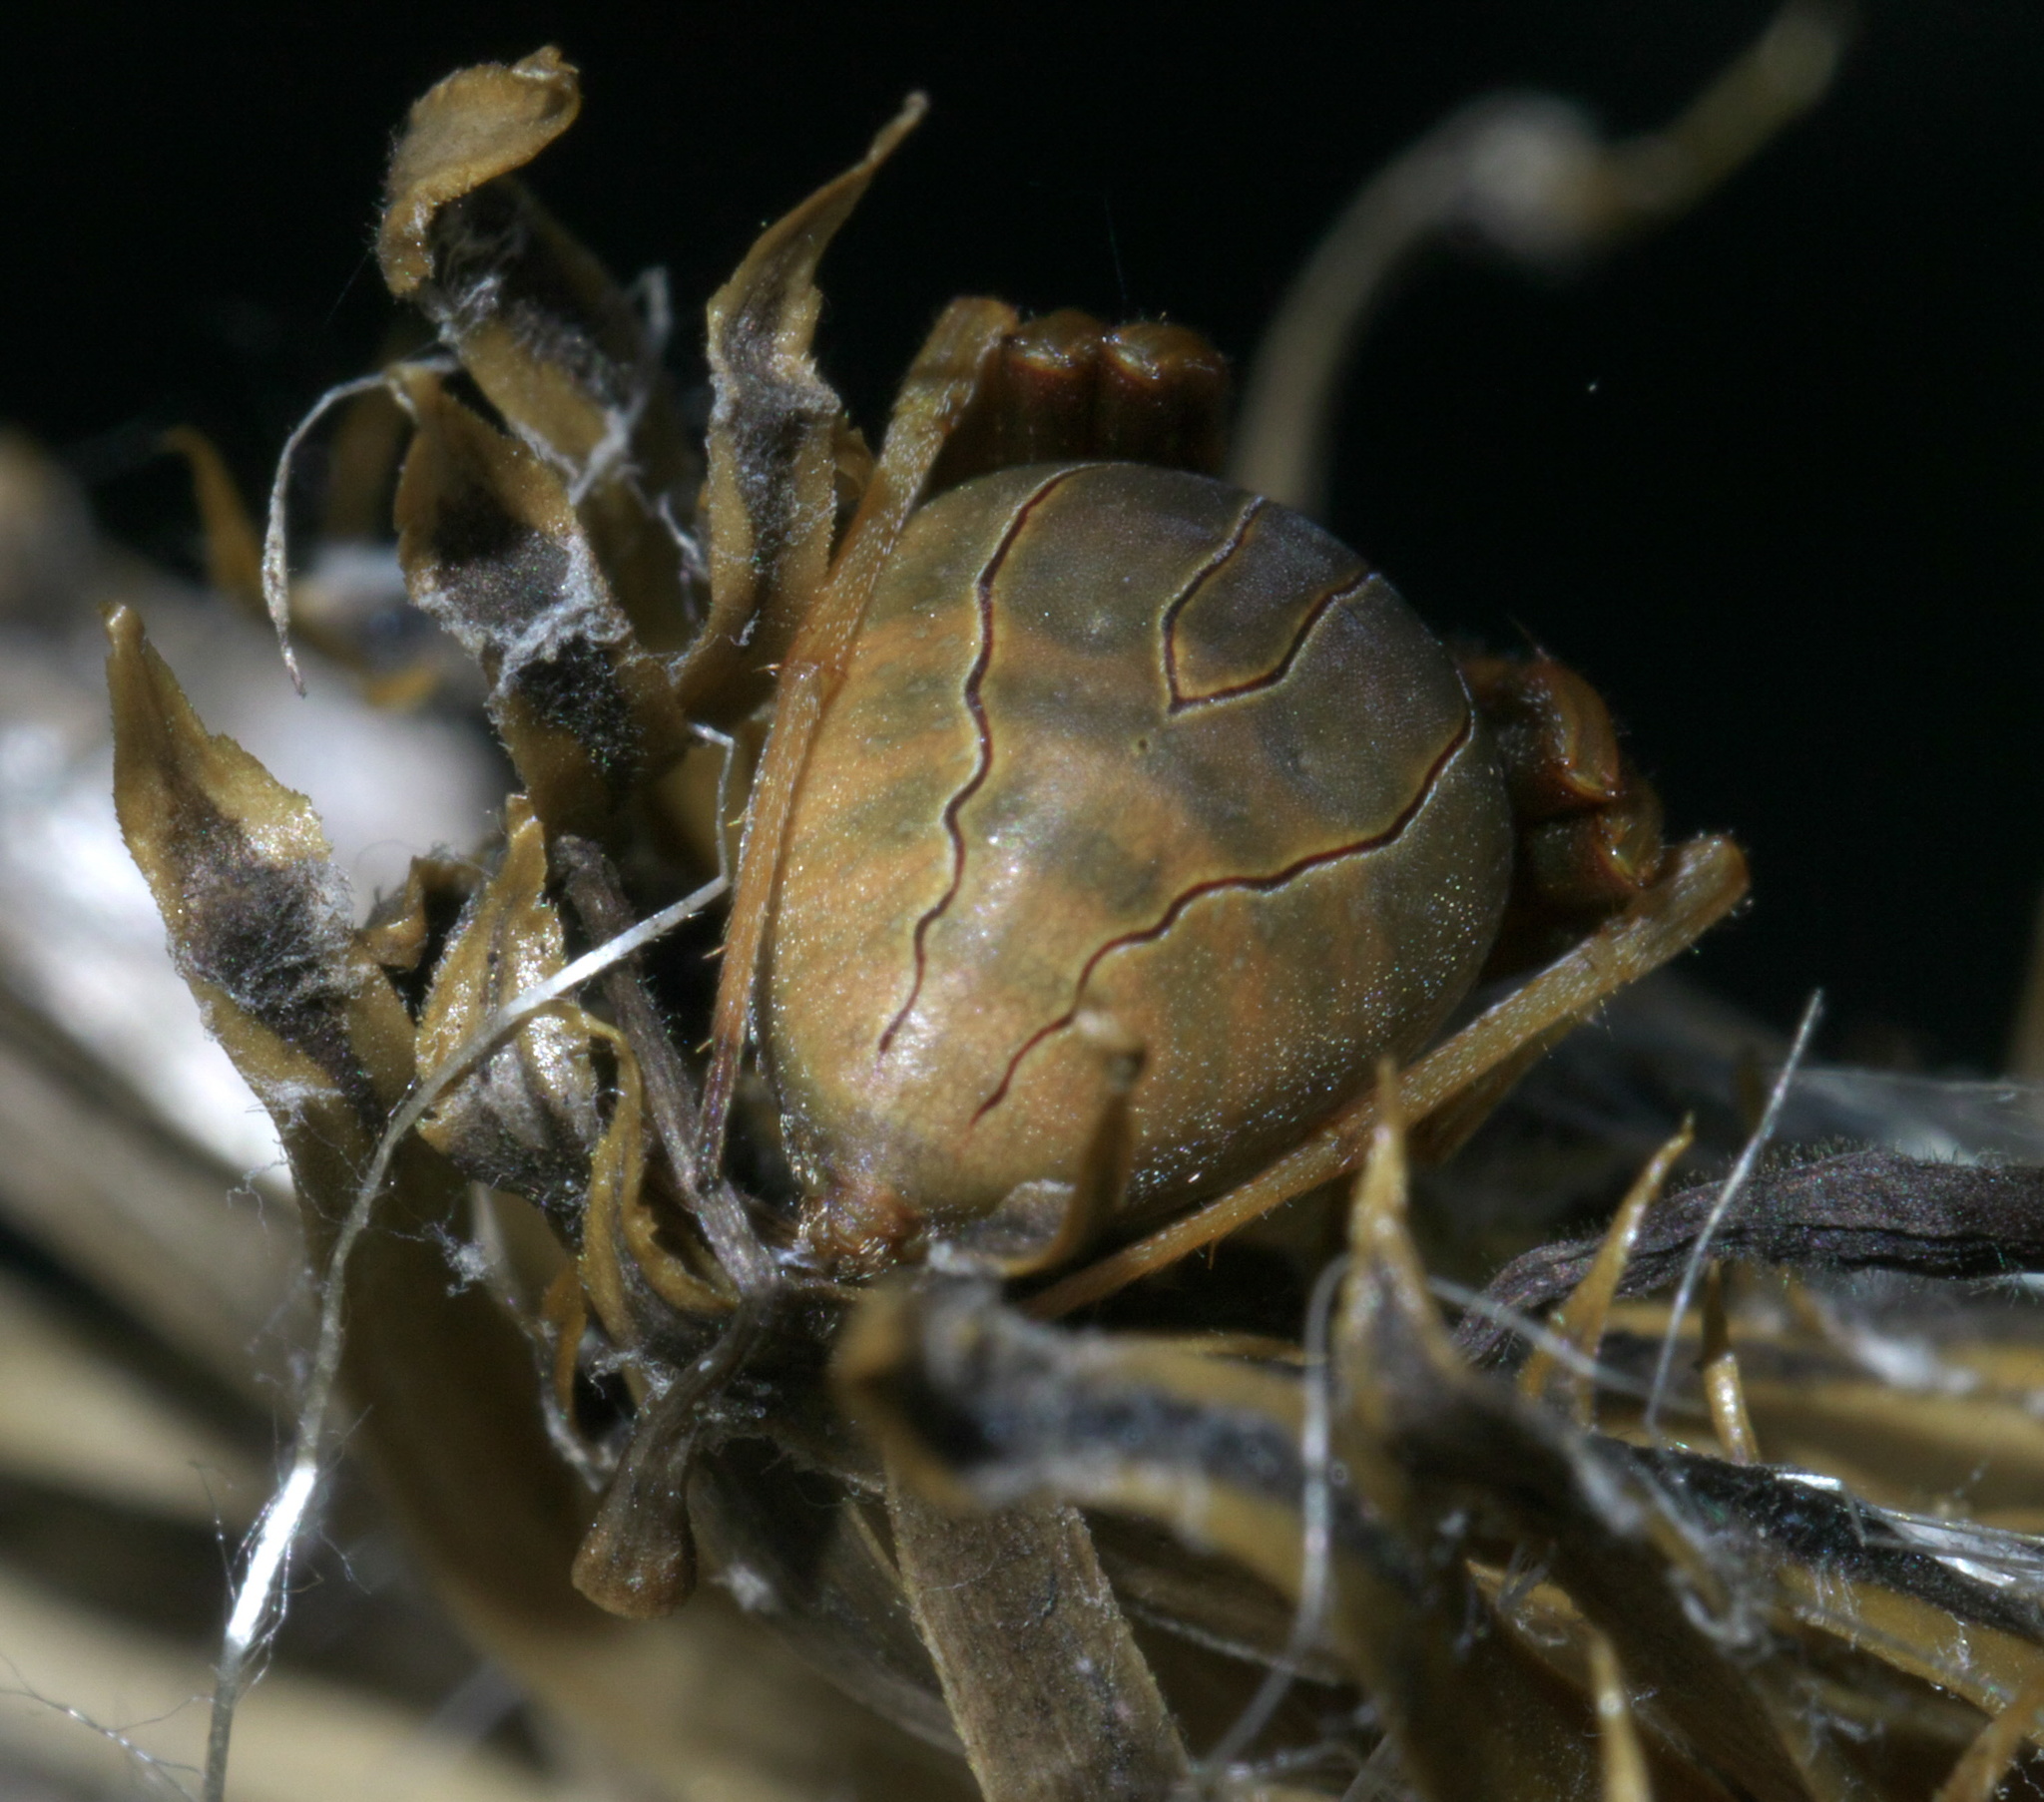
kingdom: Animalia
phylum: Arthropoda
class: Arachnida
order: Araneae
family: Araneidae
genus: Acacesia
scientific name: Acacesia hamata
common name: Orb weavers
